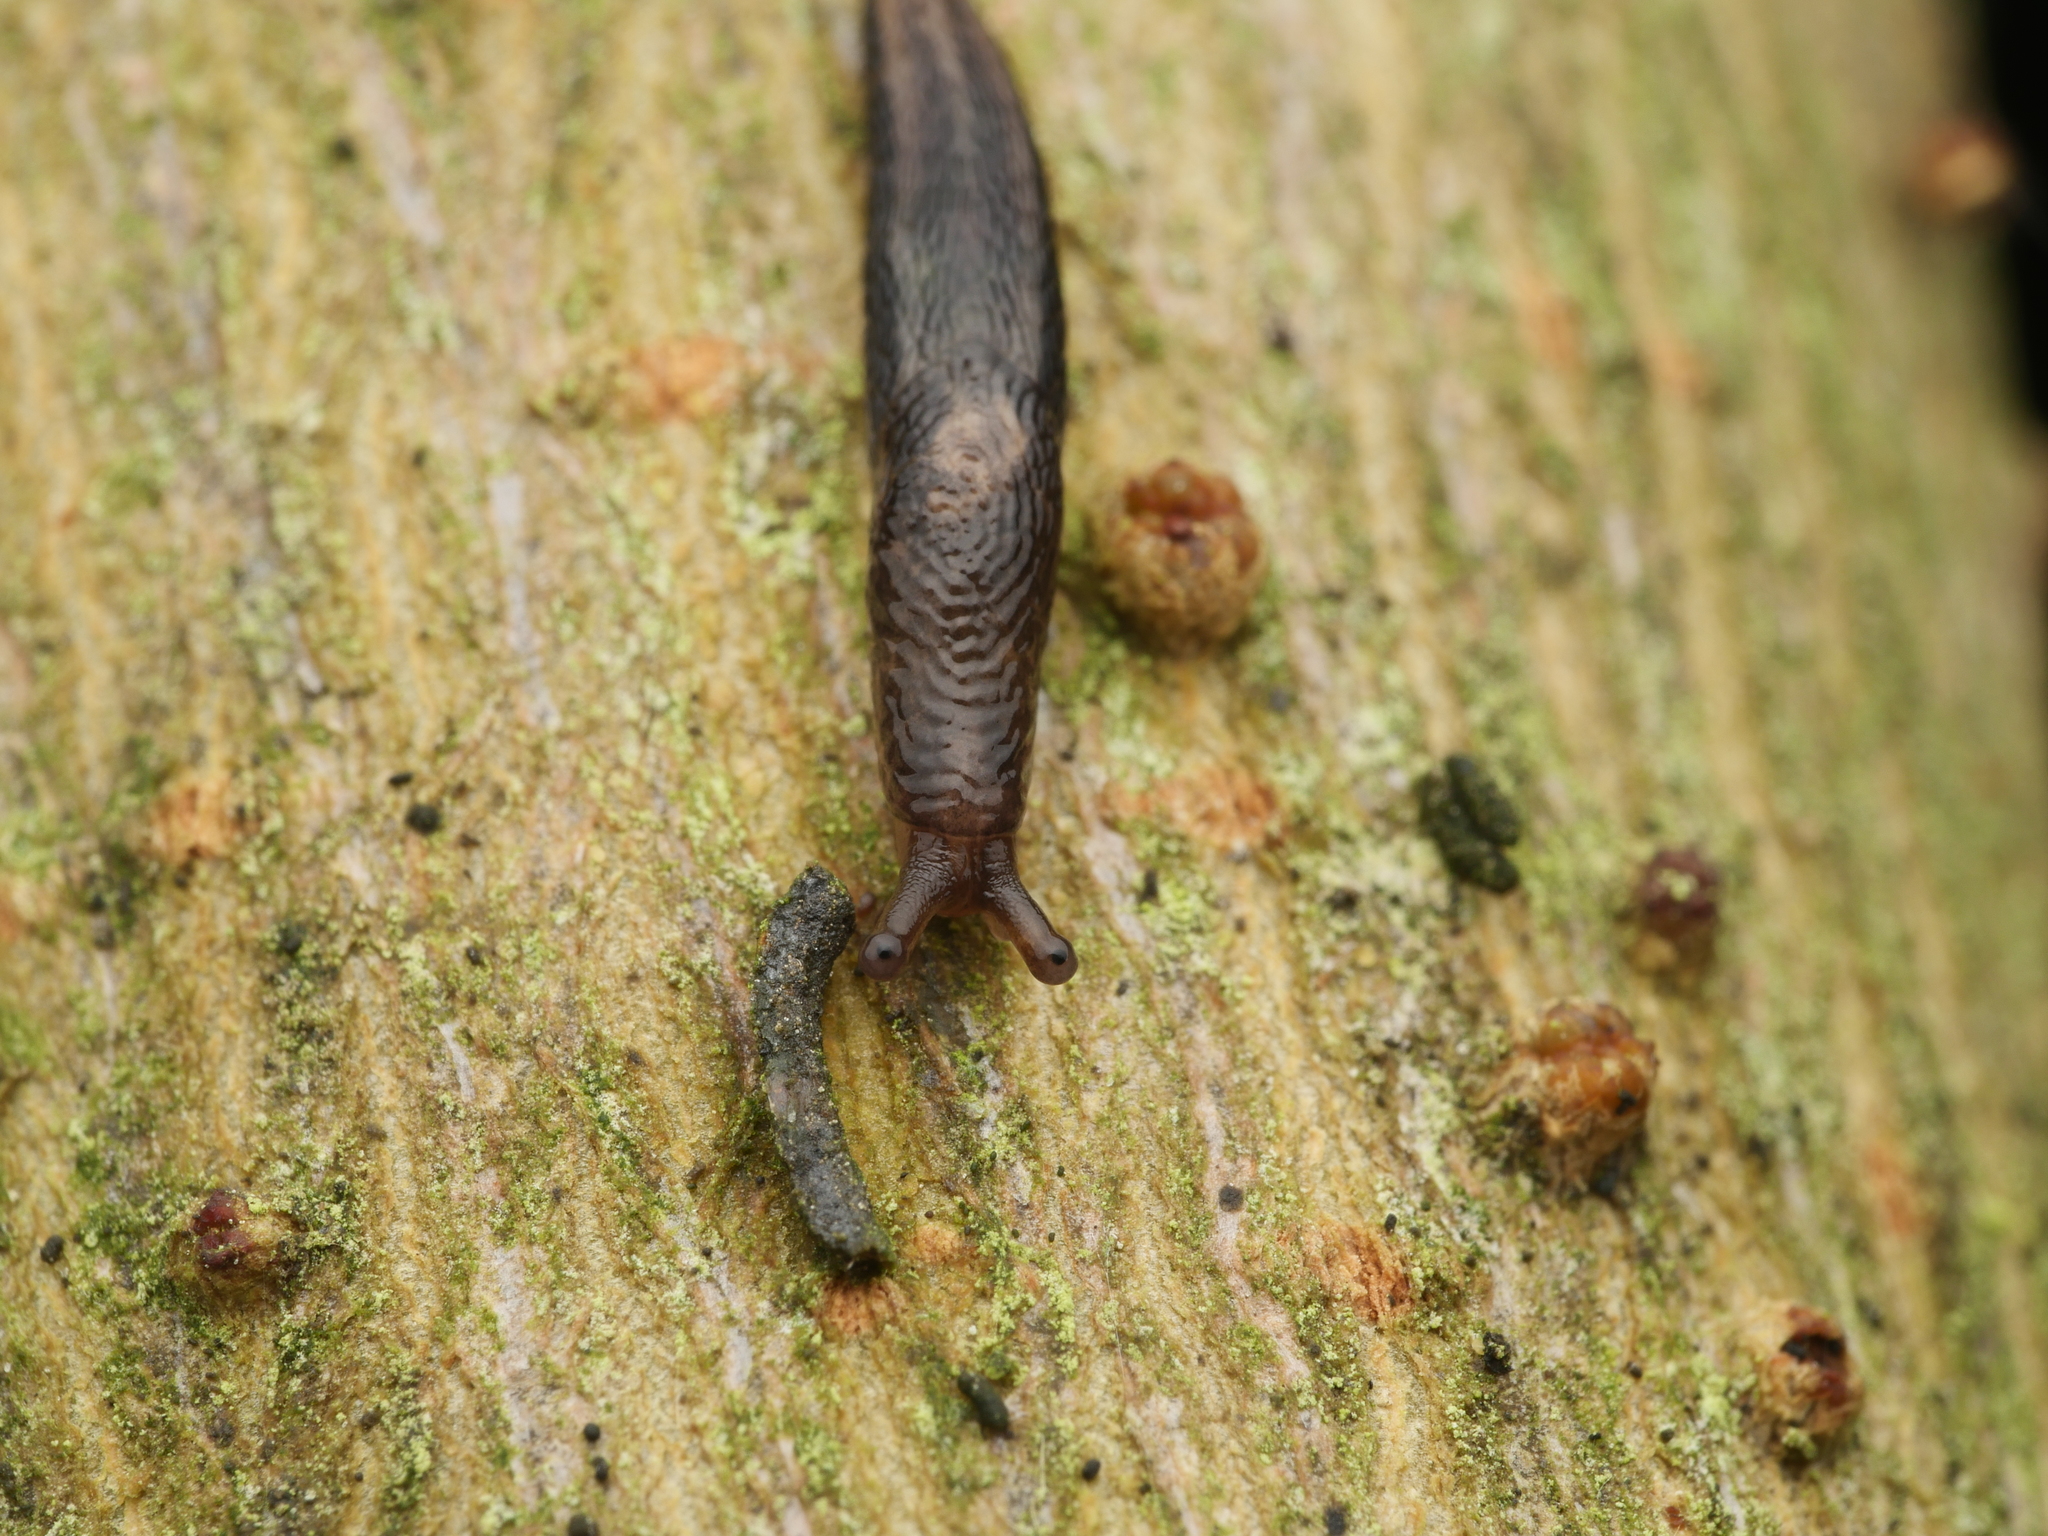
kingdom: Animalia
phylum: Mollusca
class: Gastropoda
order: Stylommatophora
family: Limacidae
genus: Limax
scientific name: Limax maximus
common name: Great grey slug
